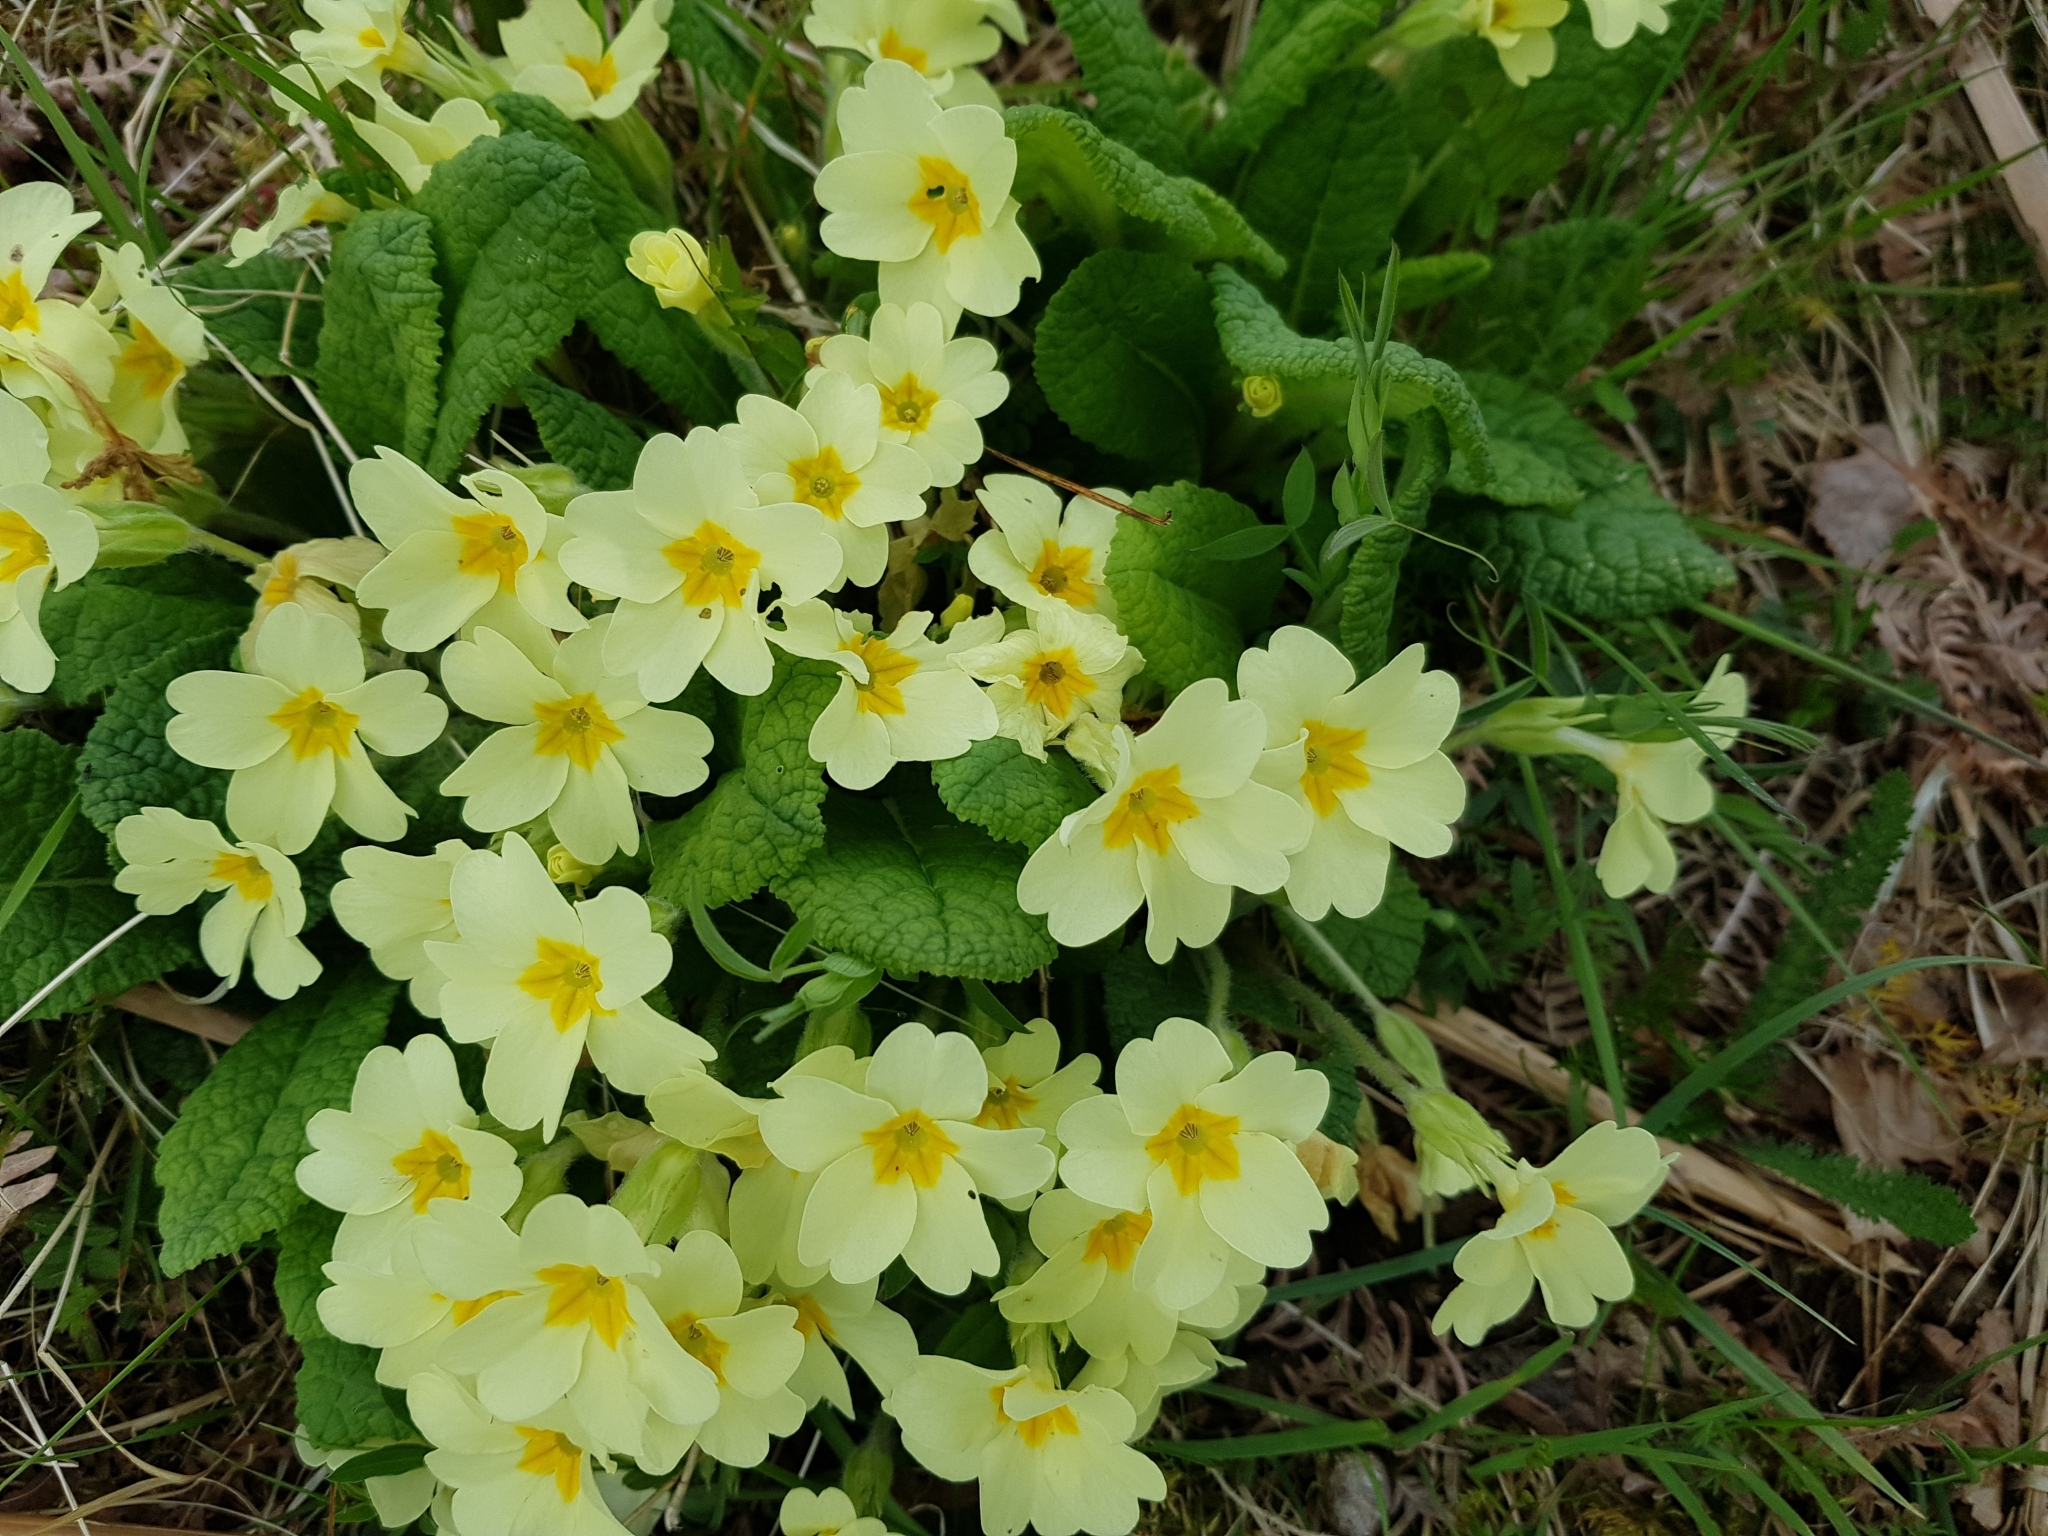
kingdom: Plantae
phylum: Tracheophyta
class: Magnoliopsida
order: Ericales
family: Primulaceae
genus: Primula
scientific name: Primula vulgaris
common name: Primrose
